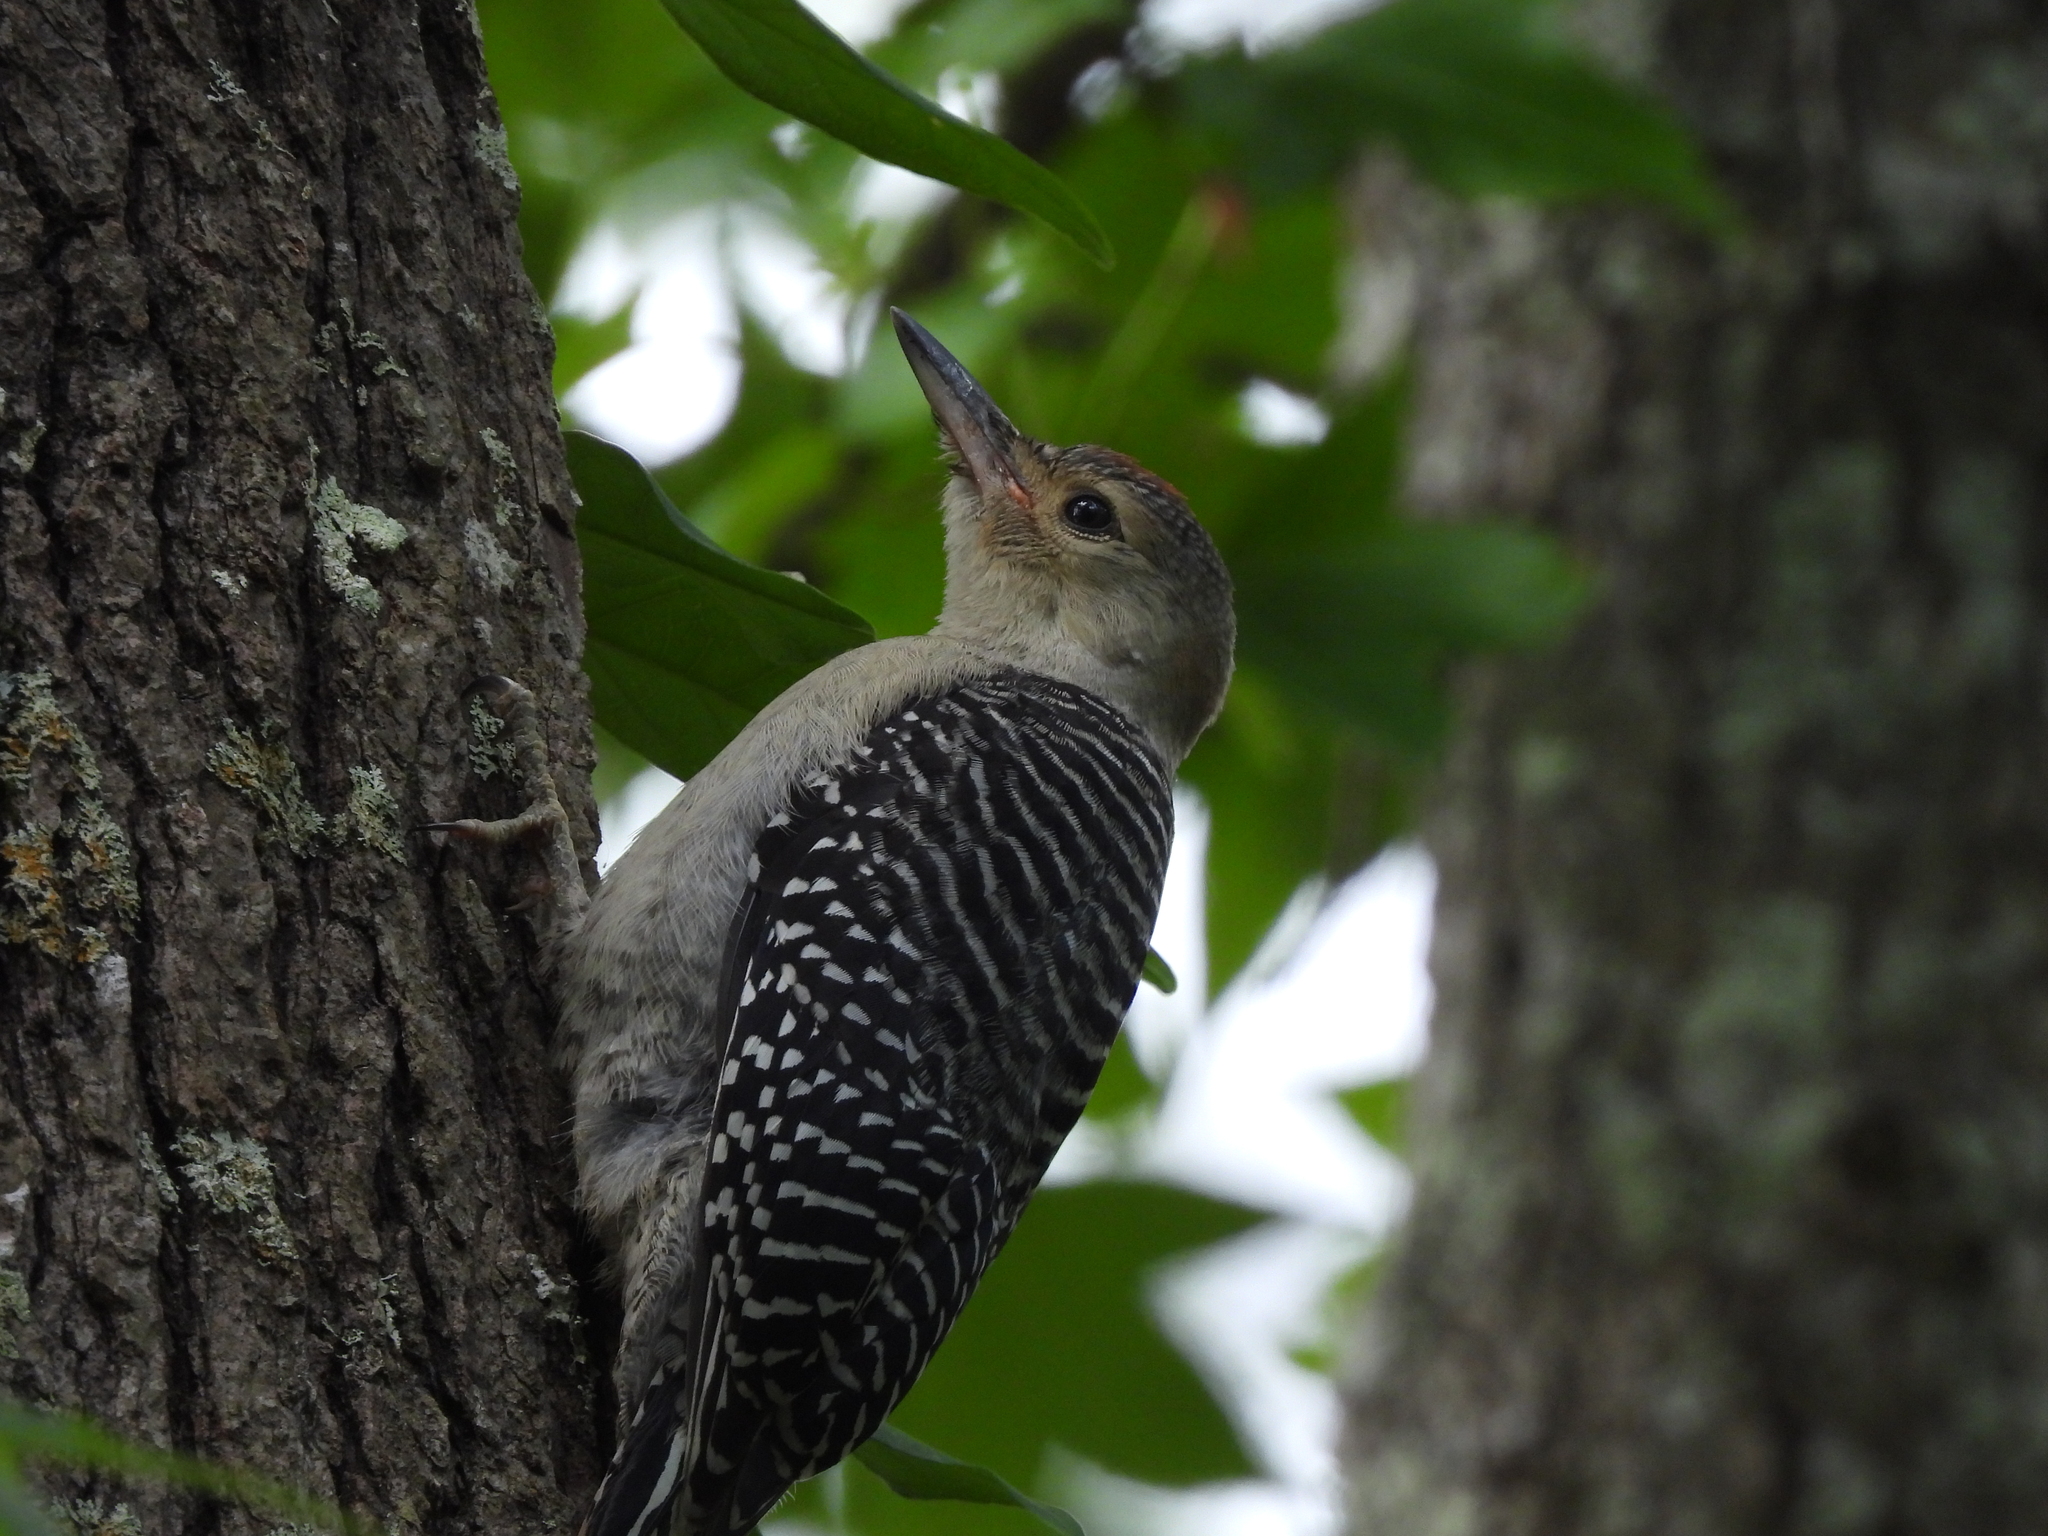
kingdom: Animalia
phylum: Chordata
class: Aves
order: Piciformes
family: Picidae
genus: Melanerpes
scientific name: Melanerpes carolinus
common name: Red-bellied woodpecker
